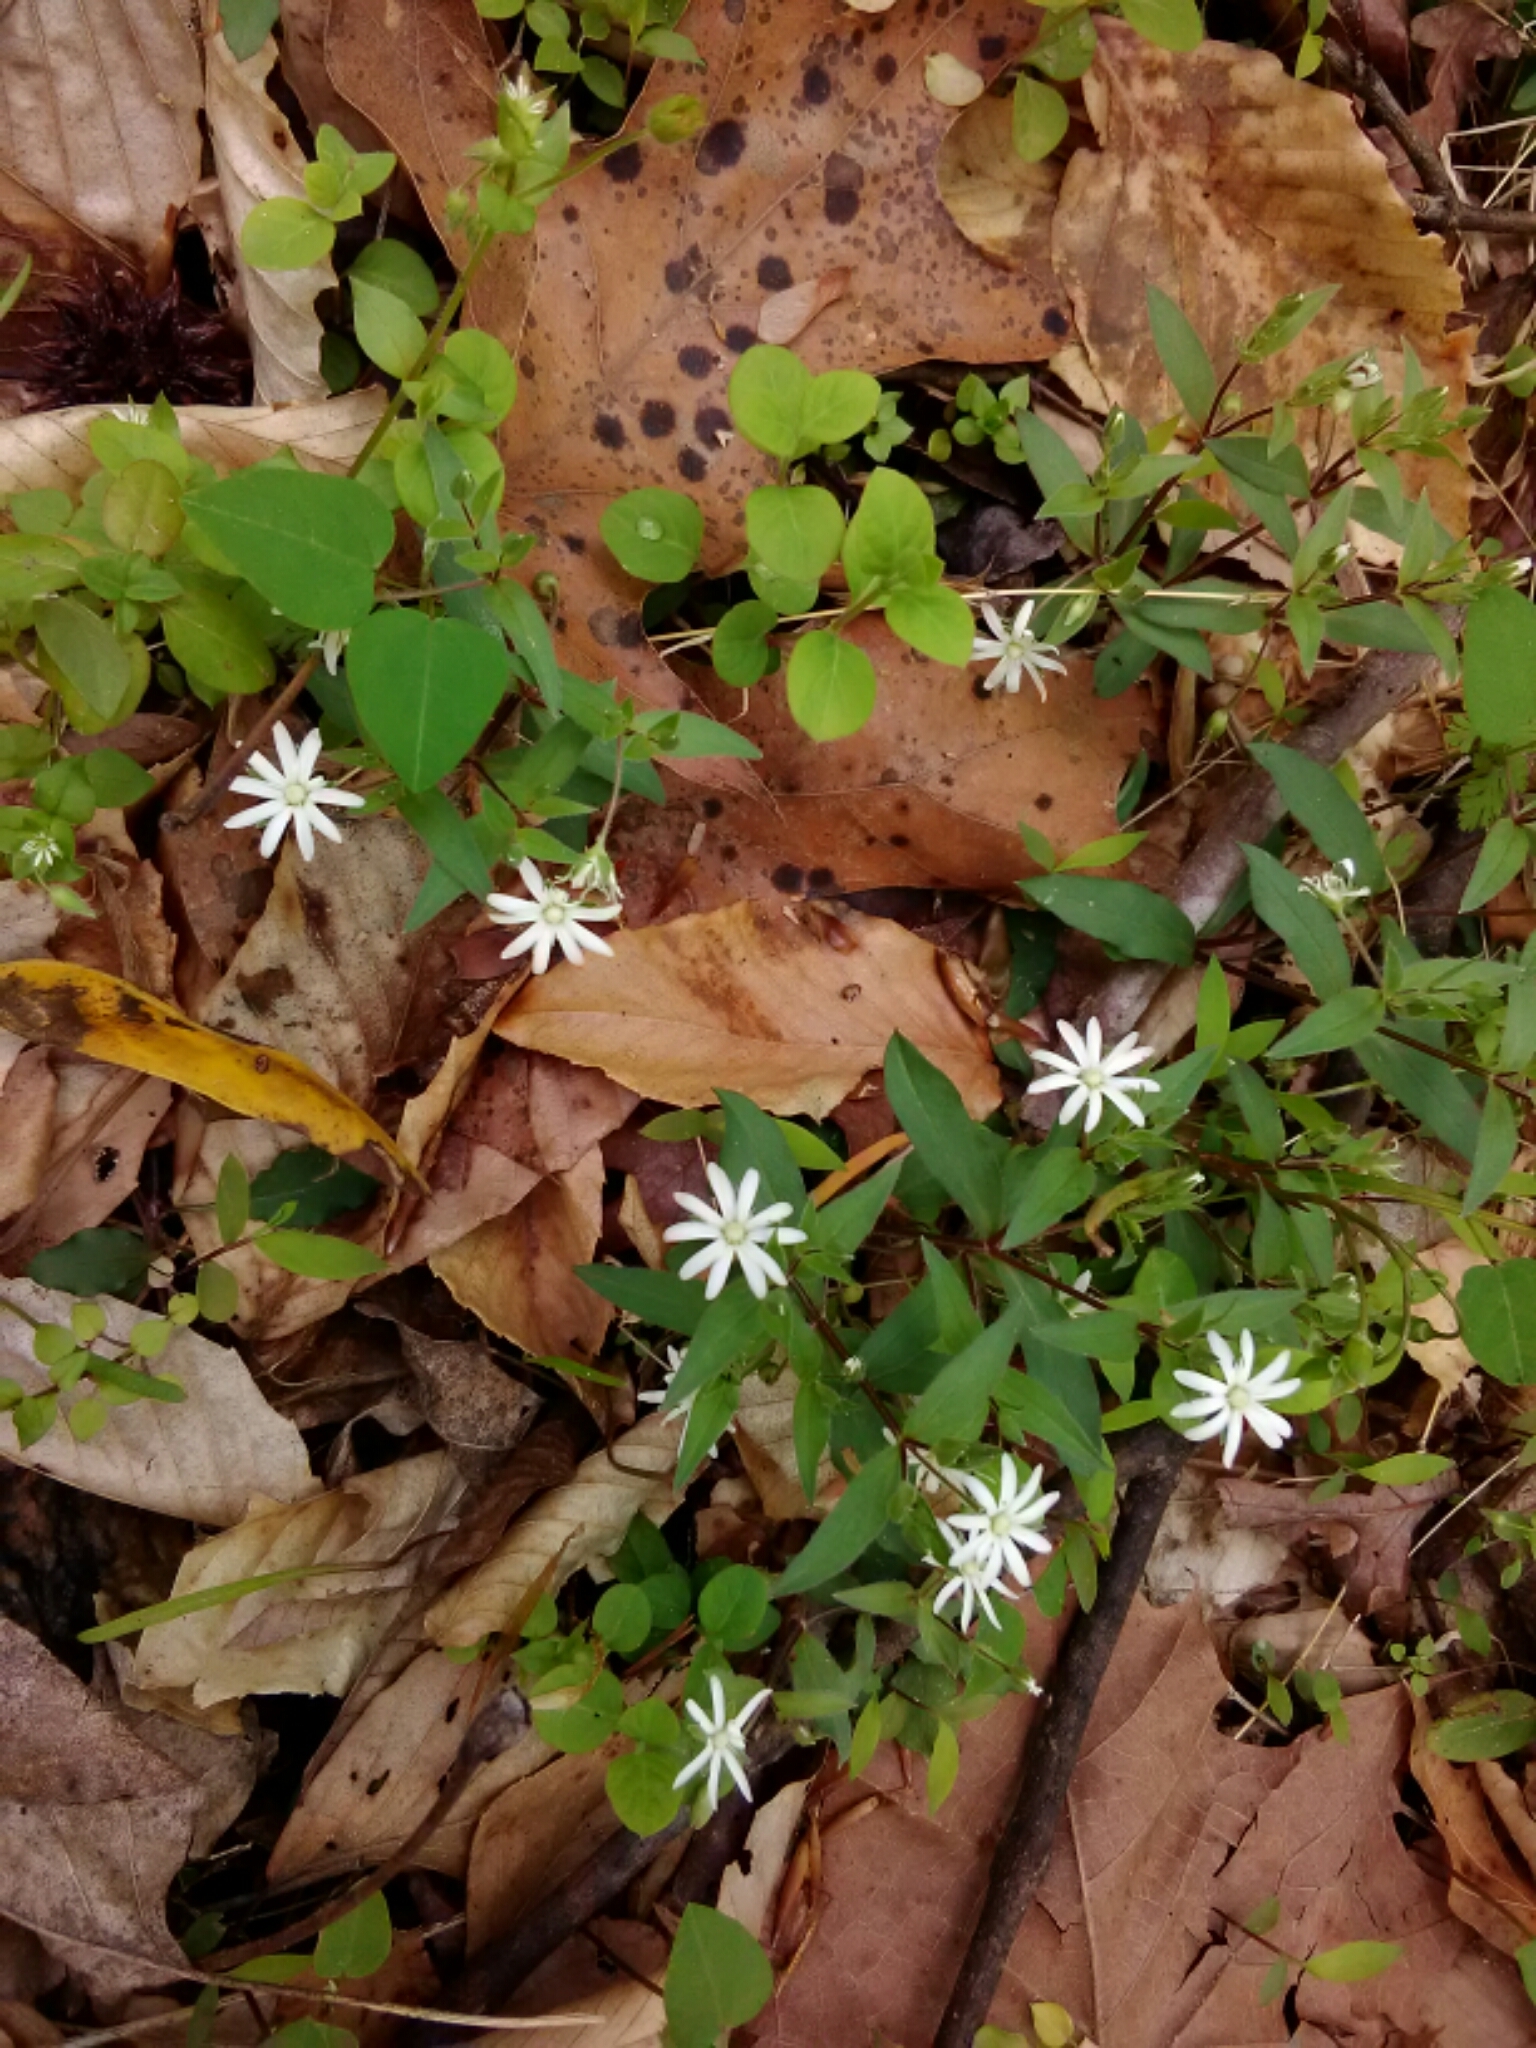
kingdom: Plantae
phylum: Tracheophyta
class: Magnoliopsida
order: Caryophyllales
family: Caryophyllaceae
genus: Stellaria
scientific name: Stellaria pubera
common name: Star chickweed
